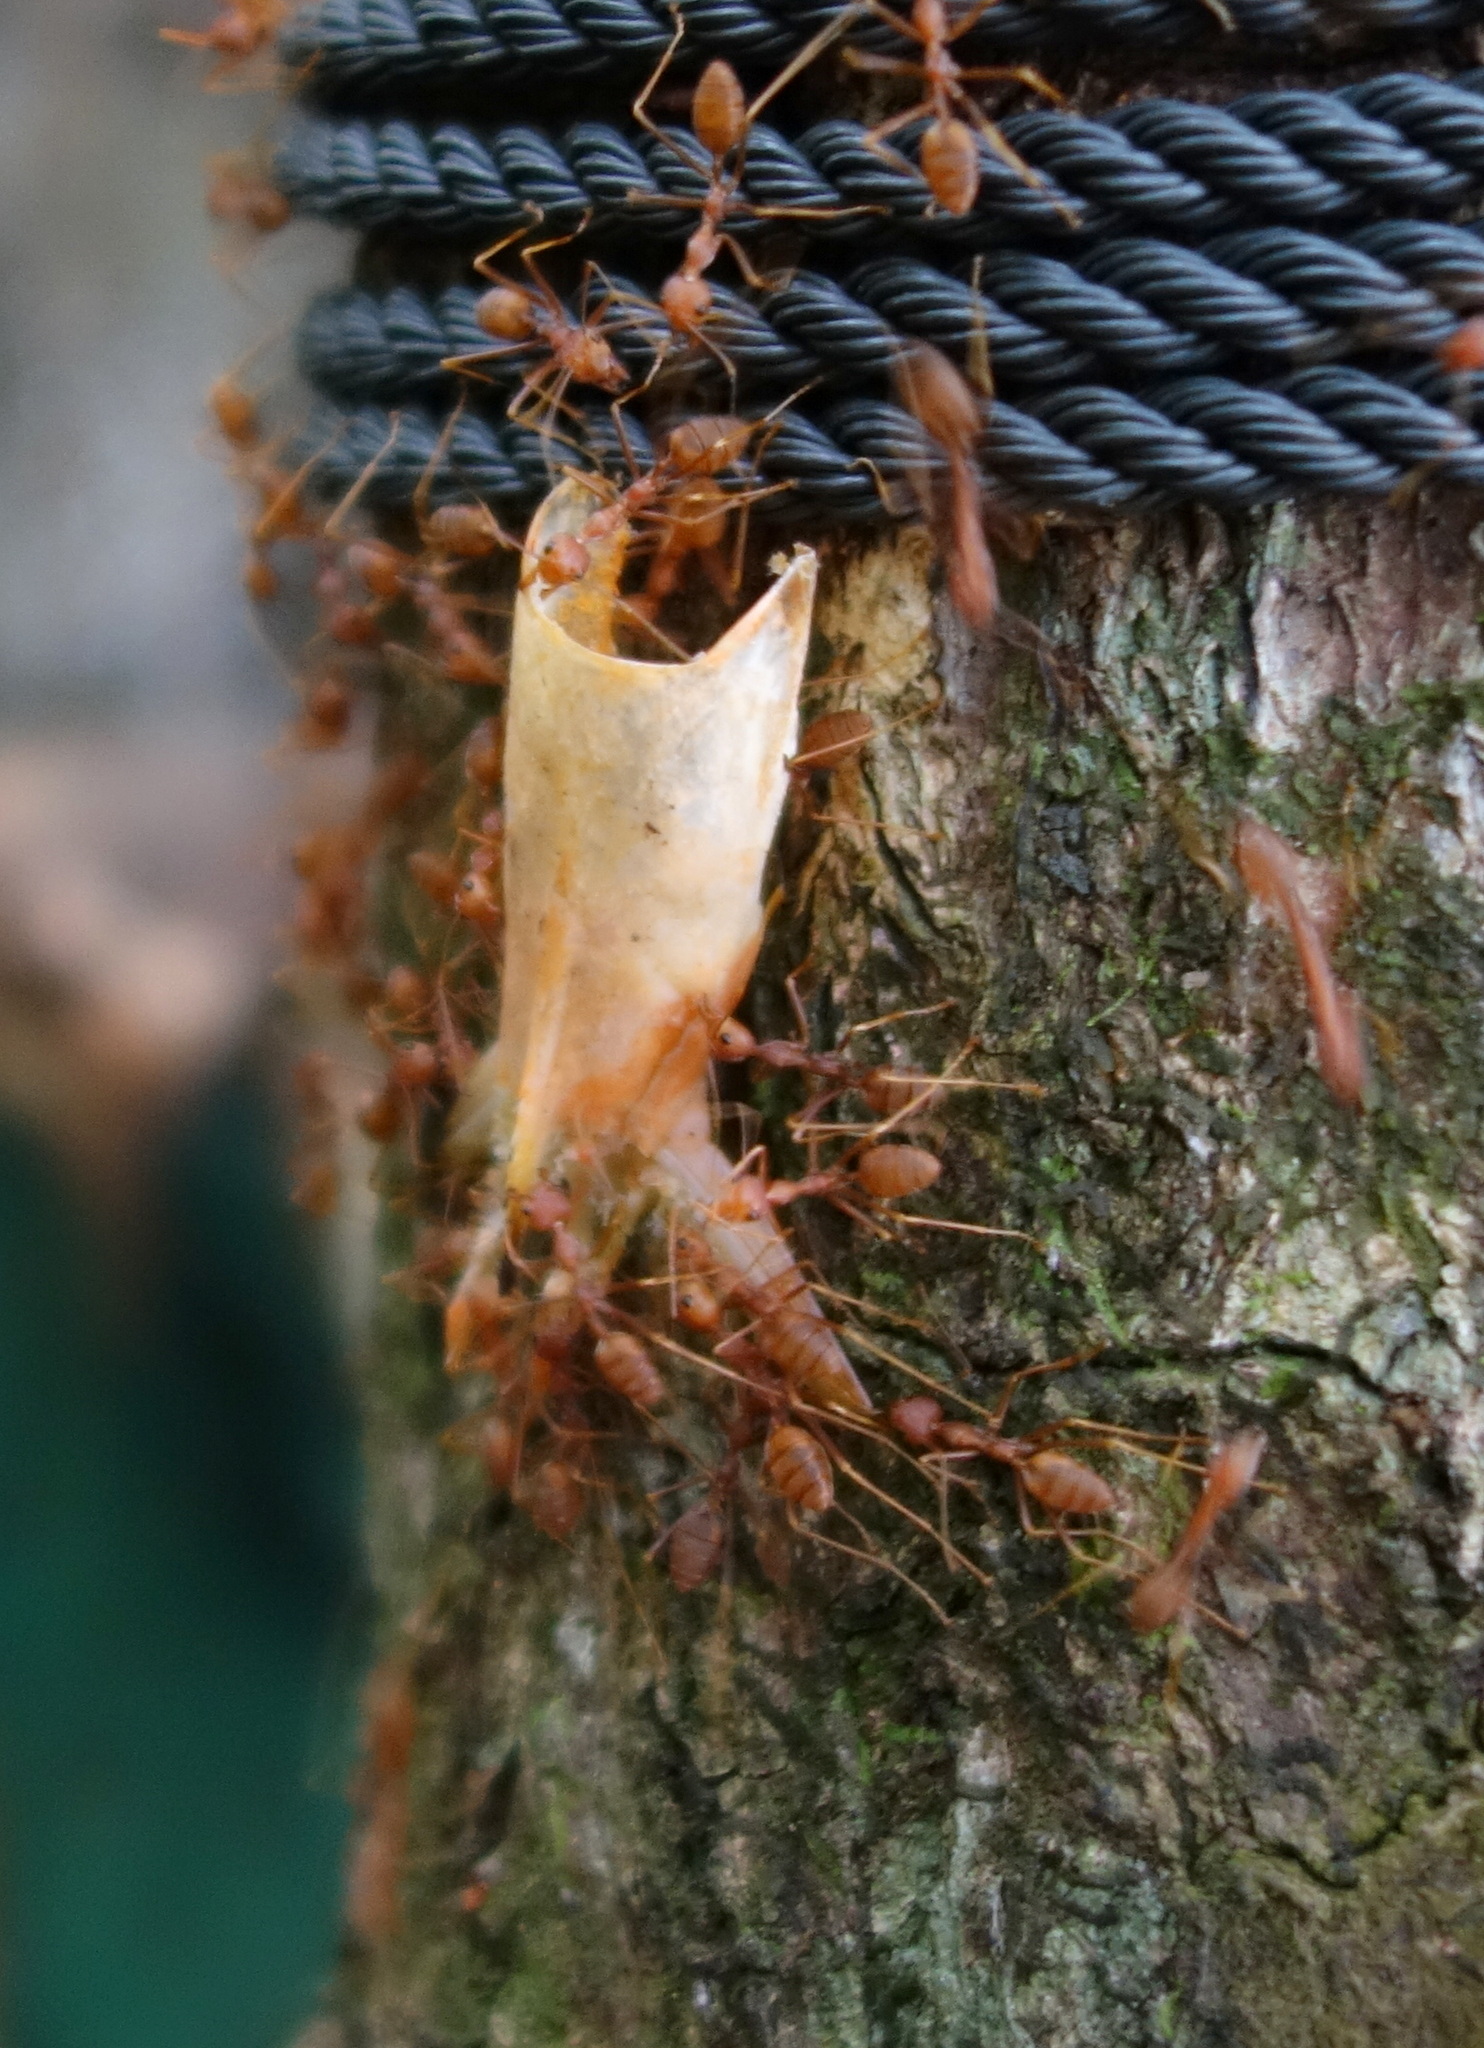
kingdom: Animalia
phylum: Arthropoda
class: Insecta
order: Hymenoptera
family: Formicidae
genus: Oecophylla
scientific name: Oecophylla smaragdina
